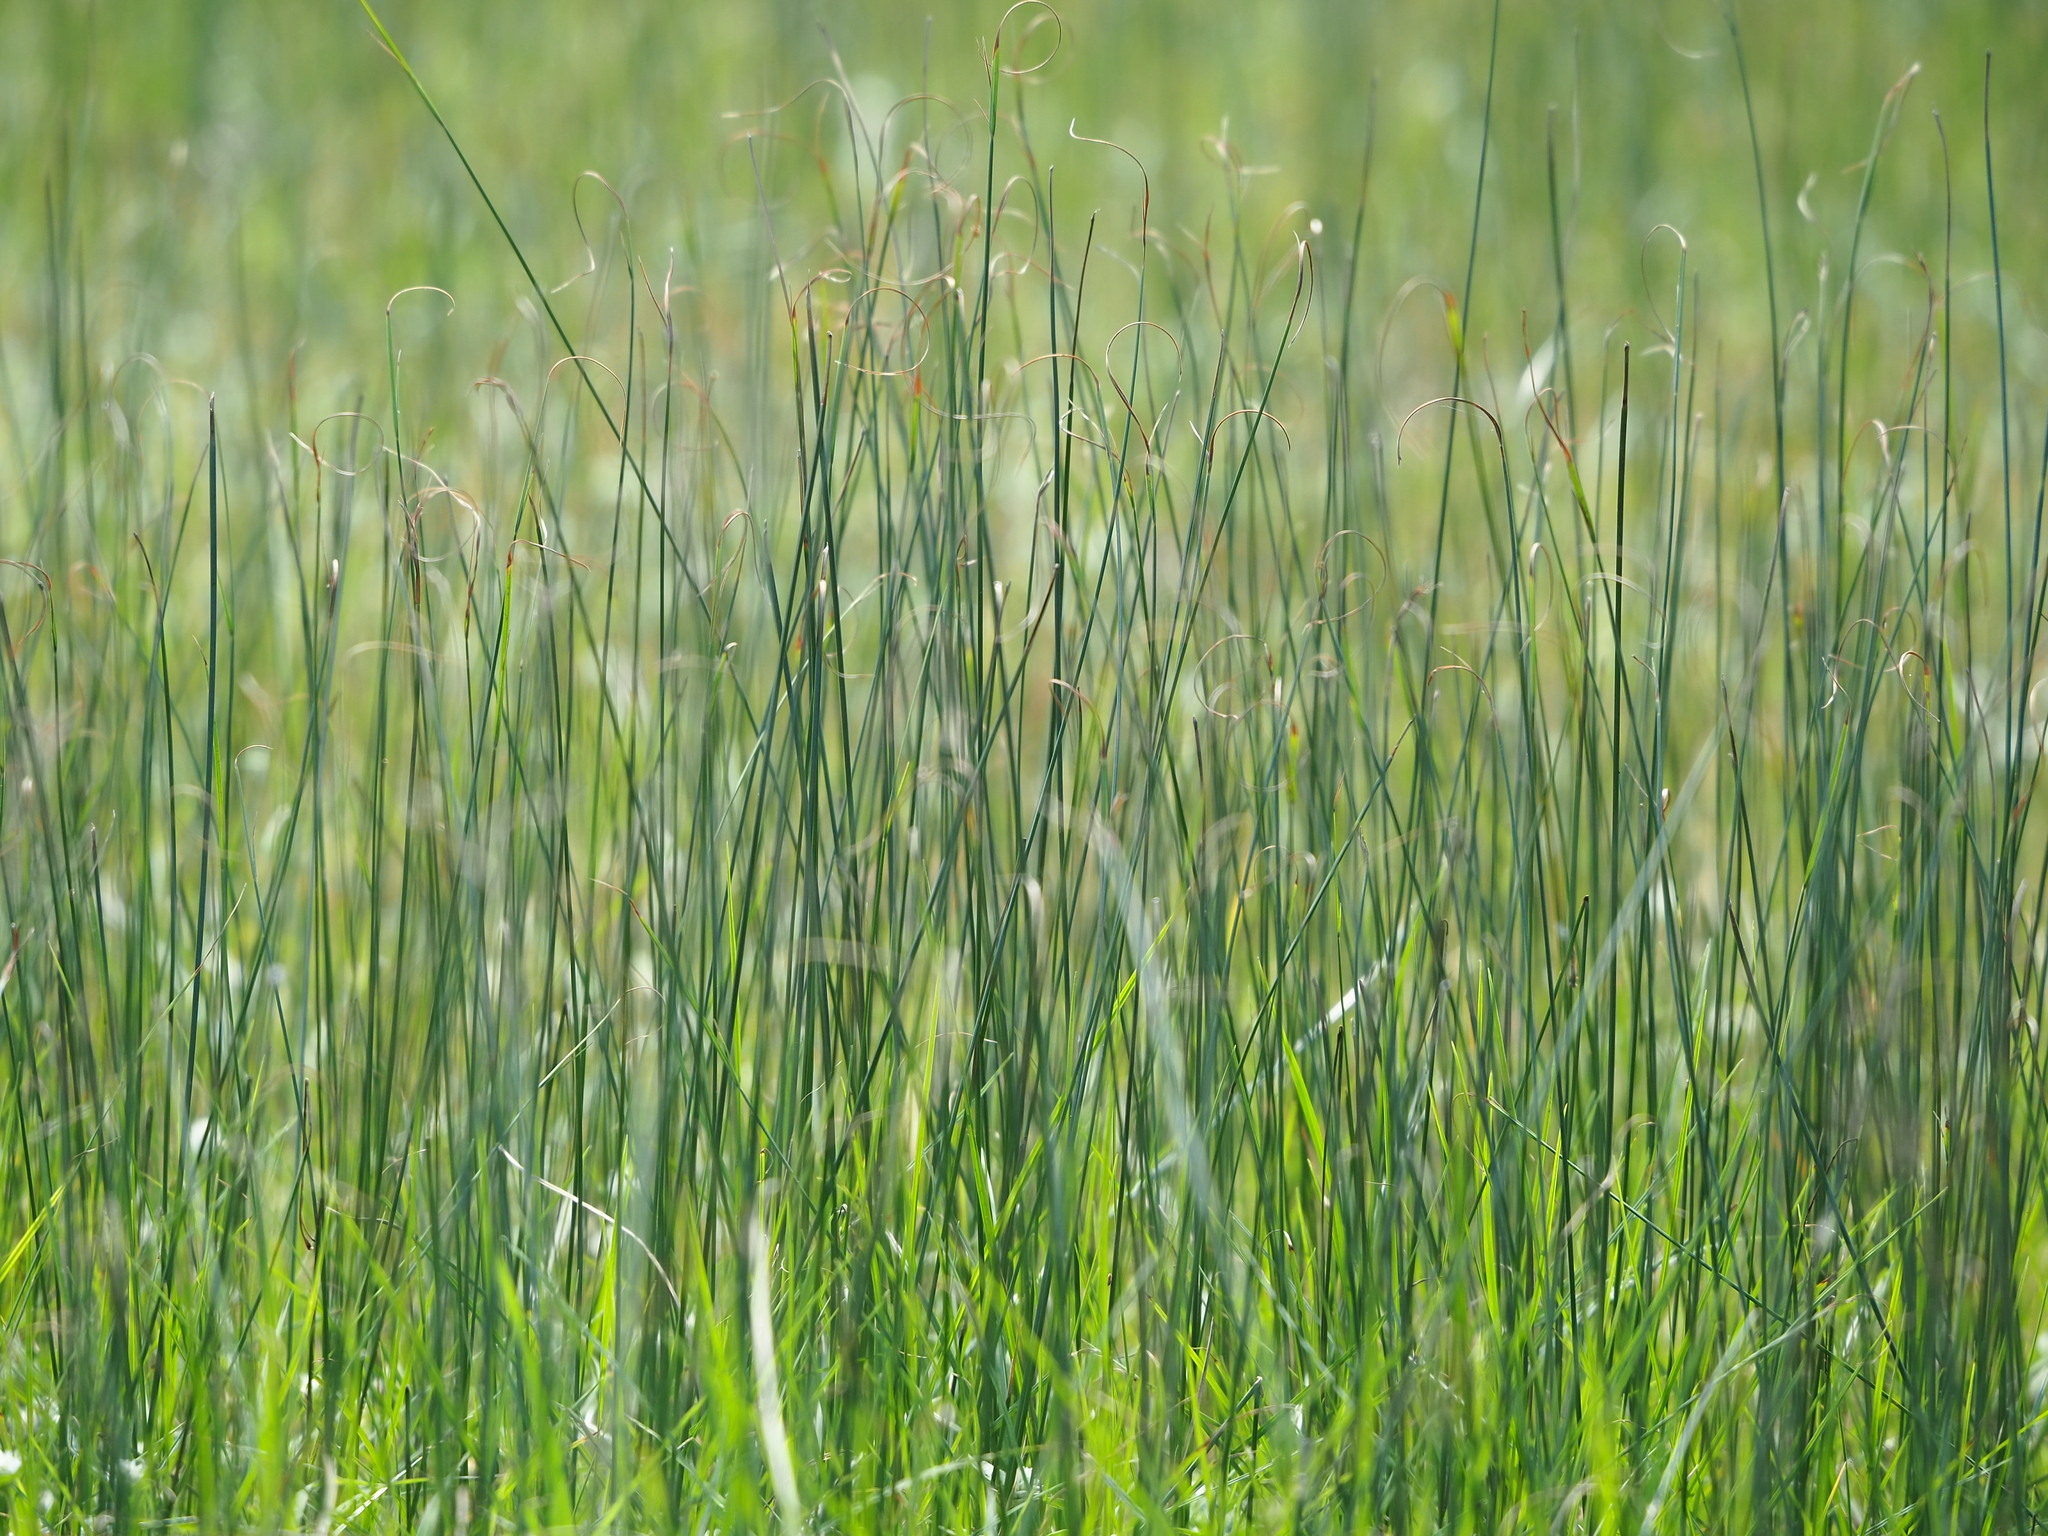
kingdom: Plantae
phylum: Tracheophyta
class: Liliopsida
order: Poales
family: Cyperaceae
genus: Cyperus
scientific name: Cyperus mitis
